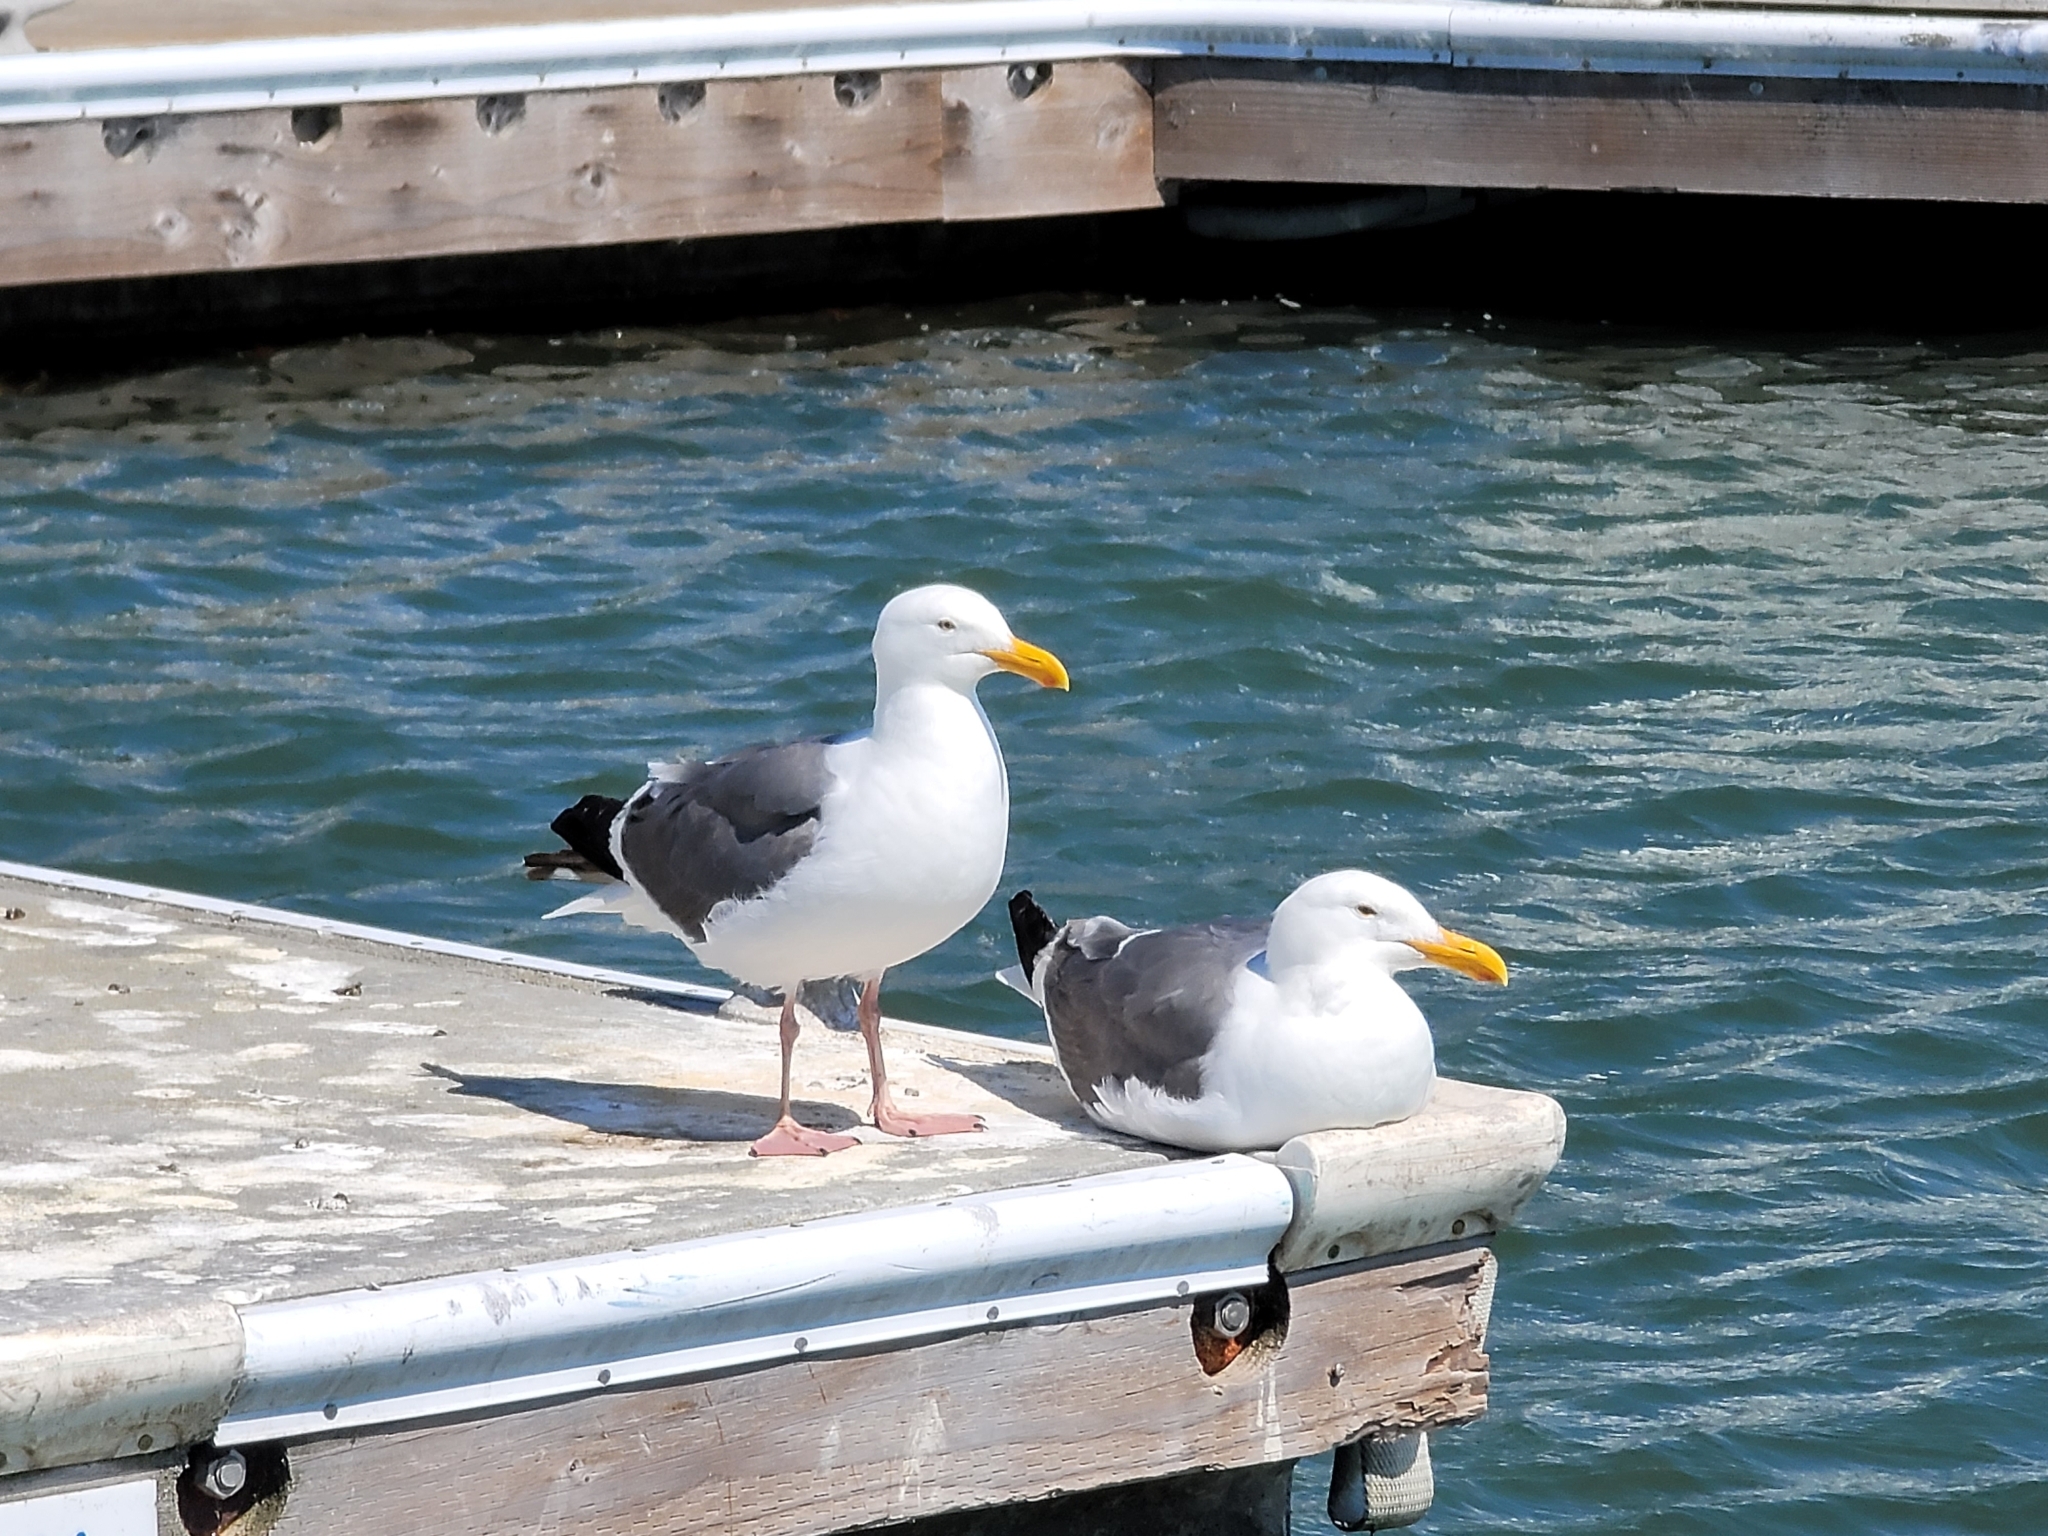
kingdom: Animalia
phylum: Chordata
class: Aves
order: Charadriiformes
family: Laridae
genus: Larus
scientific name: Larus occidentalis
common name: Western gull
